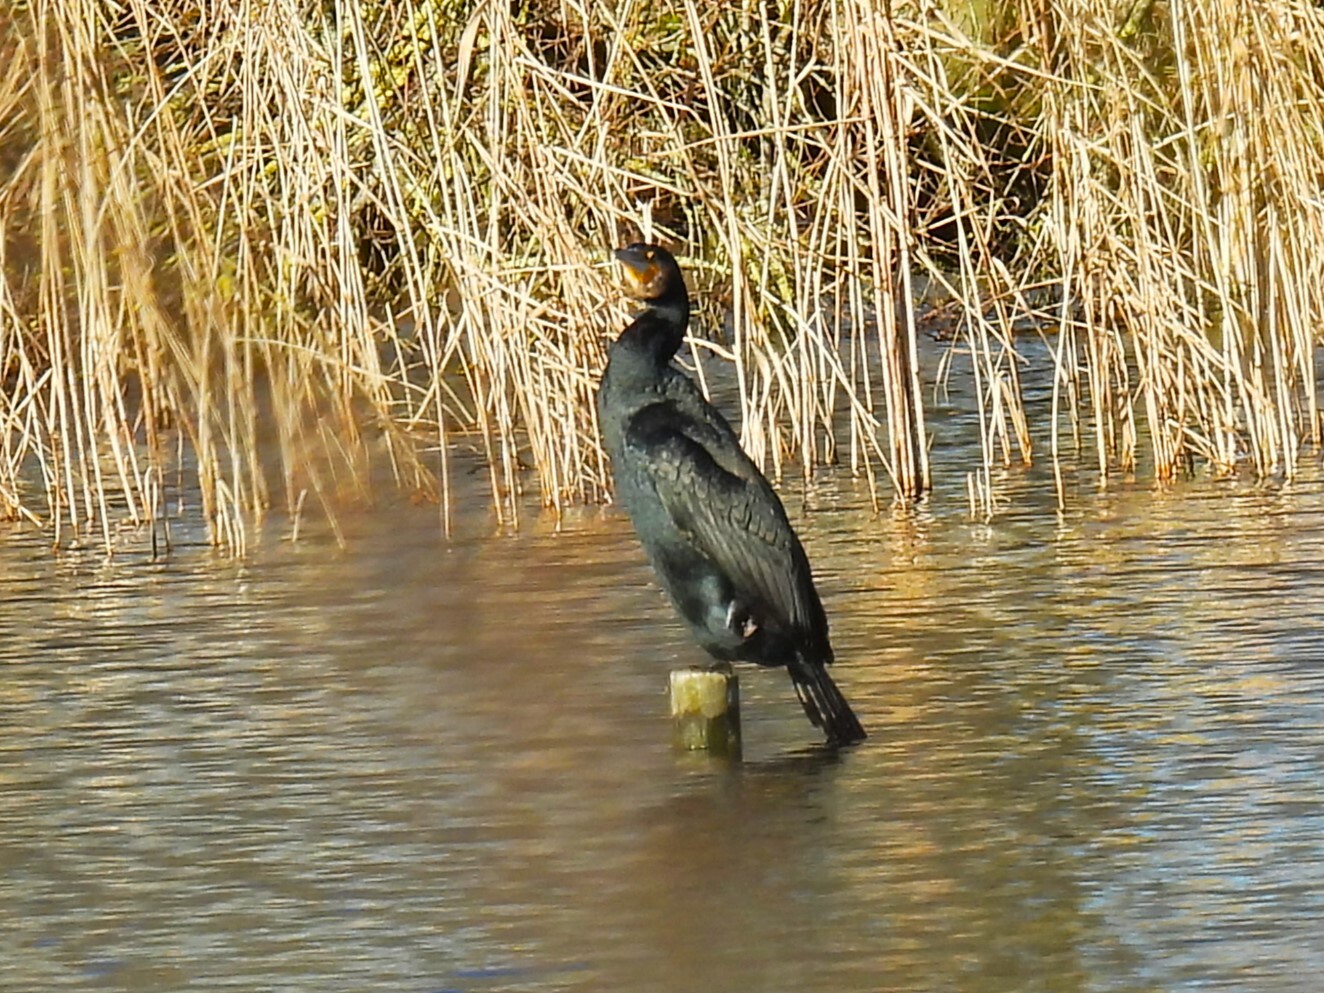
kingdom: Animalia
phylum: Chordata
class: Aves
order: Suliformes
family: Phalacrocoracidae
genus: Phalacrocorax
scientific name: Phalacrocorax carbo
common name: Great cormorant
